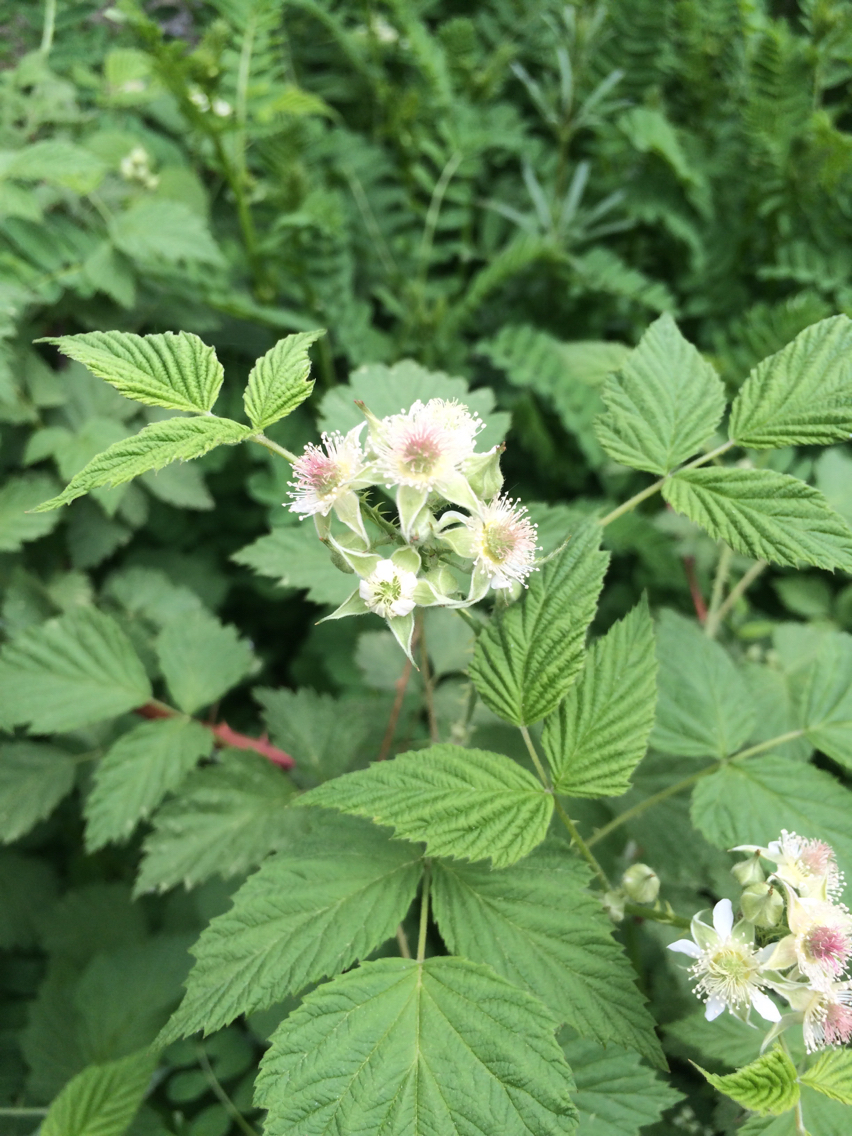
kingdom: Plantae
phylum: Tracheophyta
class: Magnoliopsida
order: Rosales
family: Rosaceae
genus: Rubus
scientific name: Rubus
